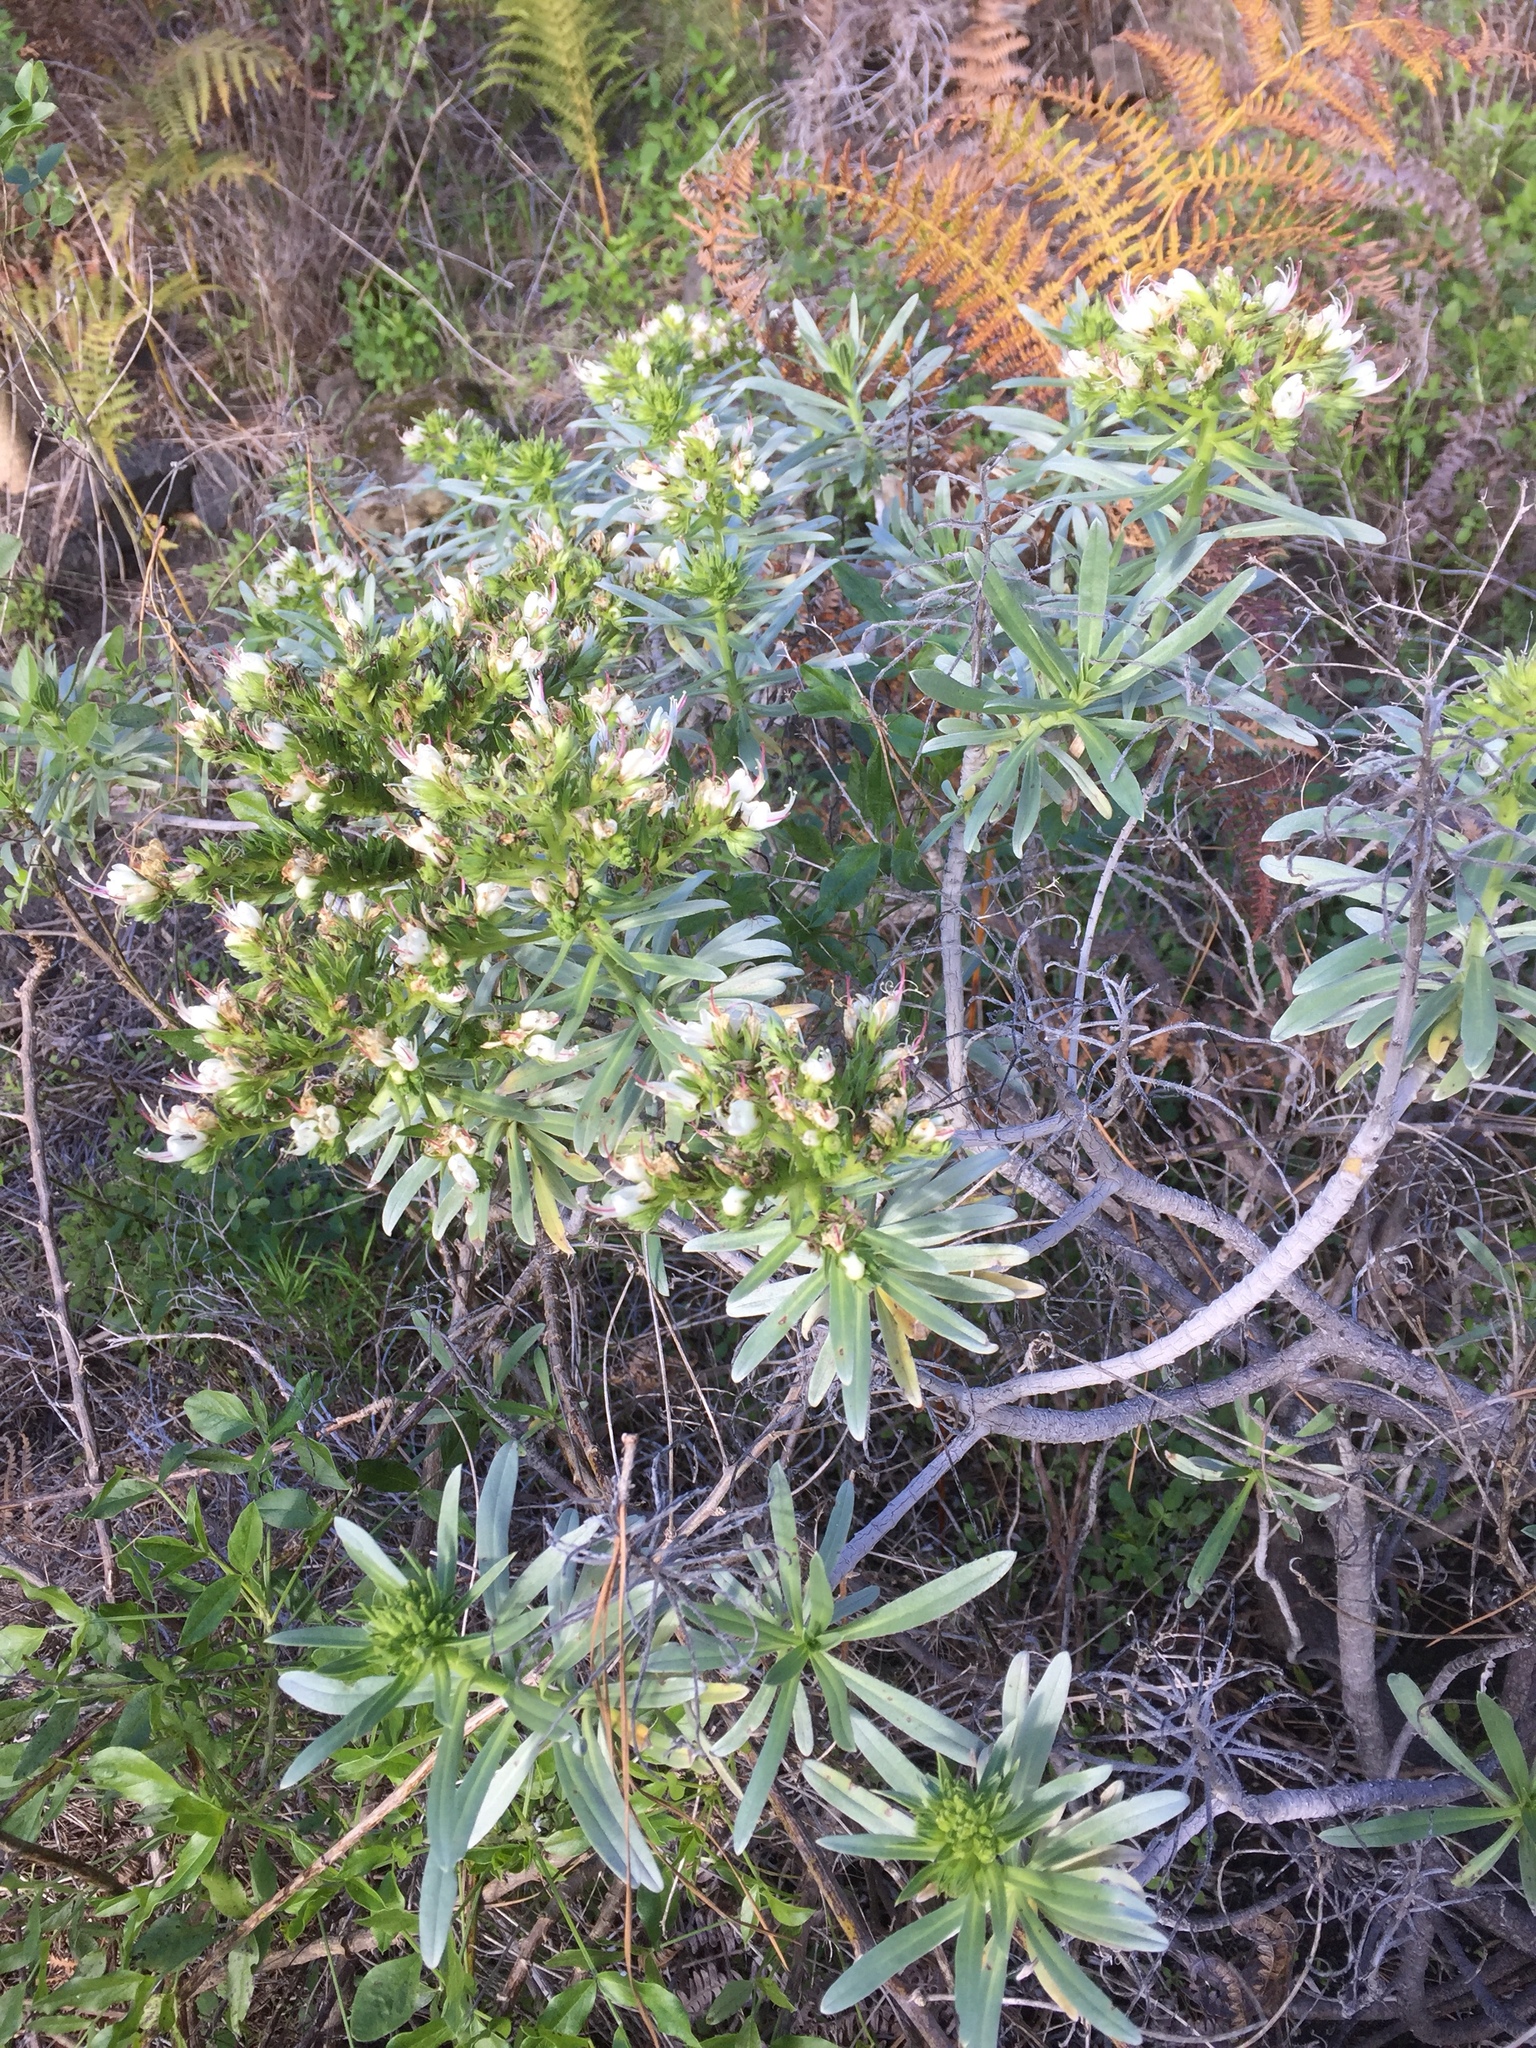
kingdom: Plantae
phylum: Tracheophyta
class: Magnoliopsida
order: Boraginales
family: Boraginaceae
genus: Echium
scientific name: Echium brevirame
